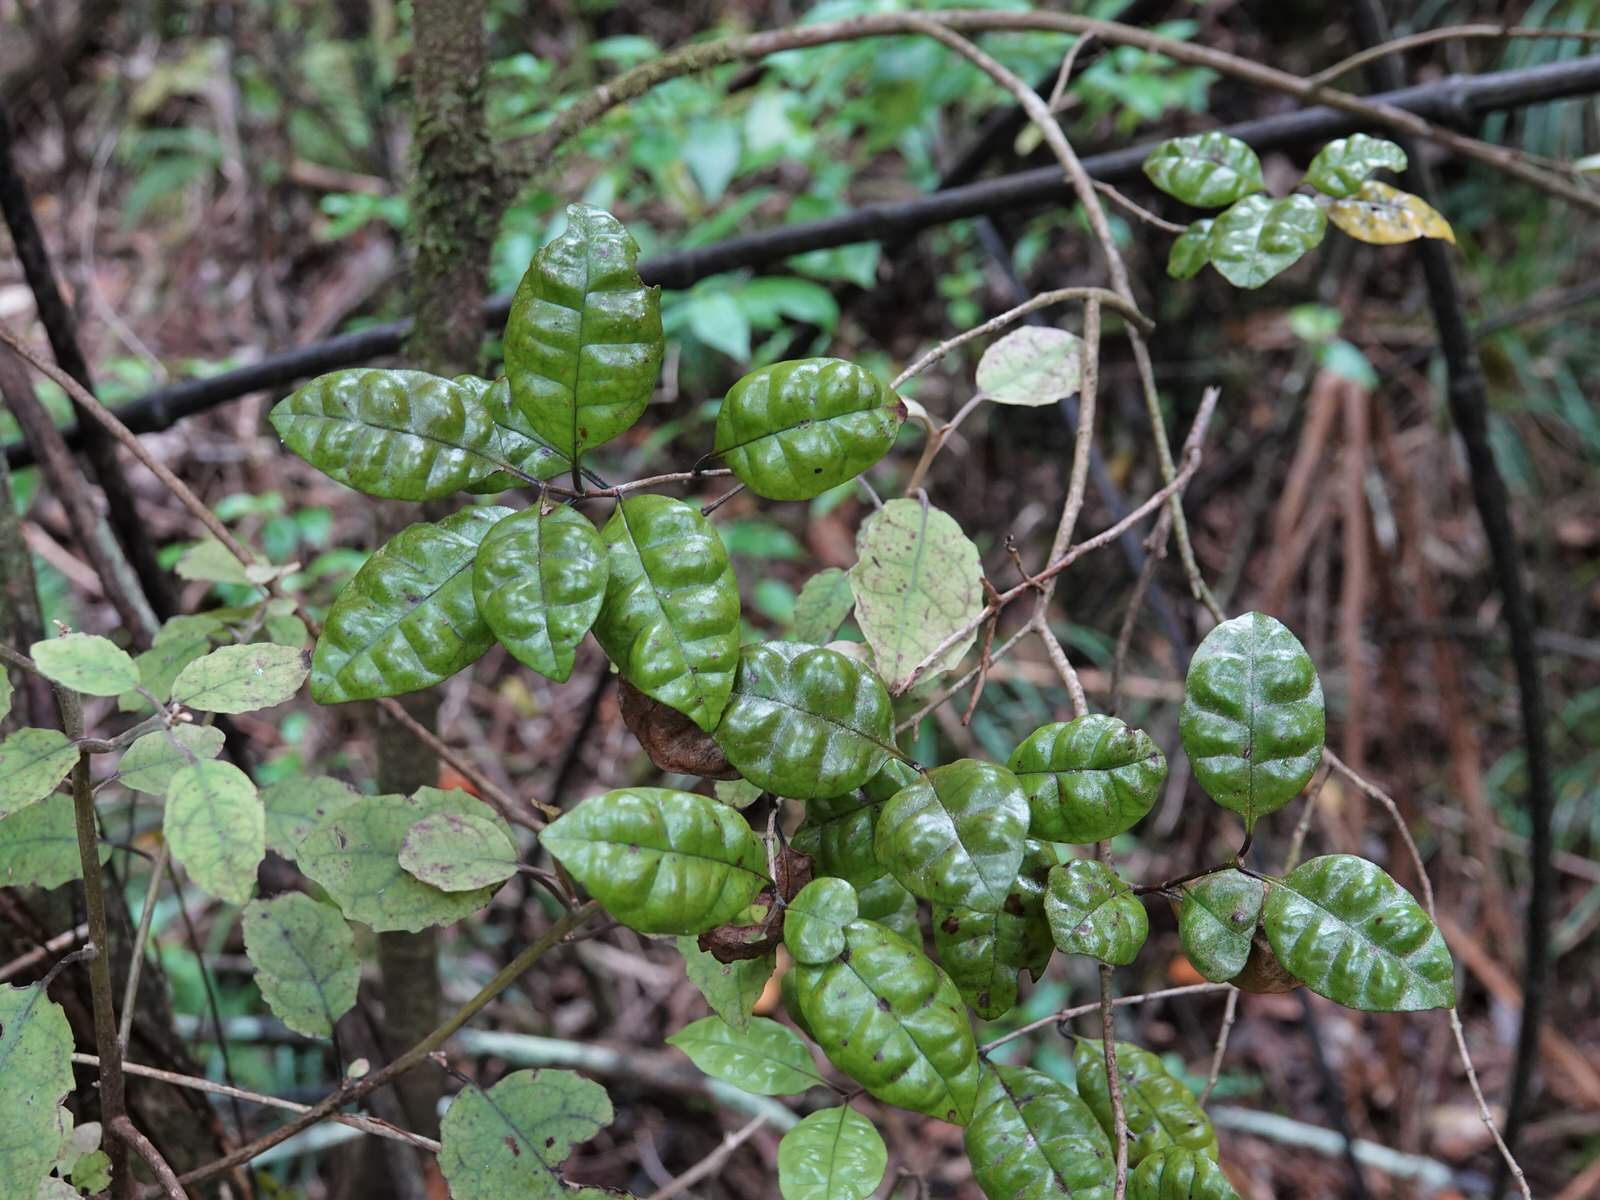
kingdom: Plantae
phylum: Tracheophyta
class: Magnoliopsida
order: Myrtales
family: Myrtaceae
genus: Lophomyrtus
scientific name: Lophomyrtus bullata
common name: Rama rama
